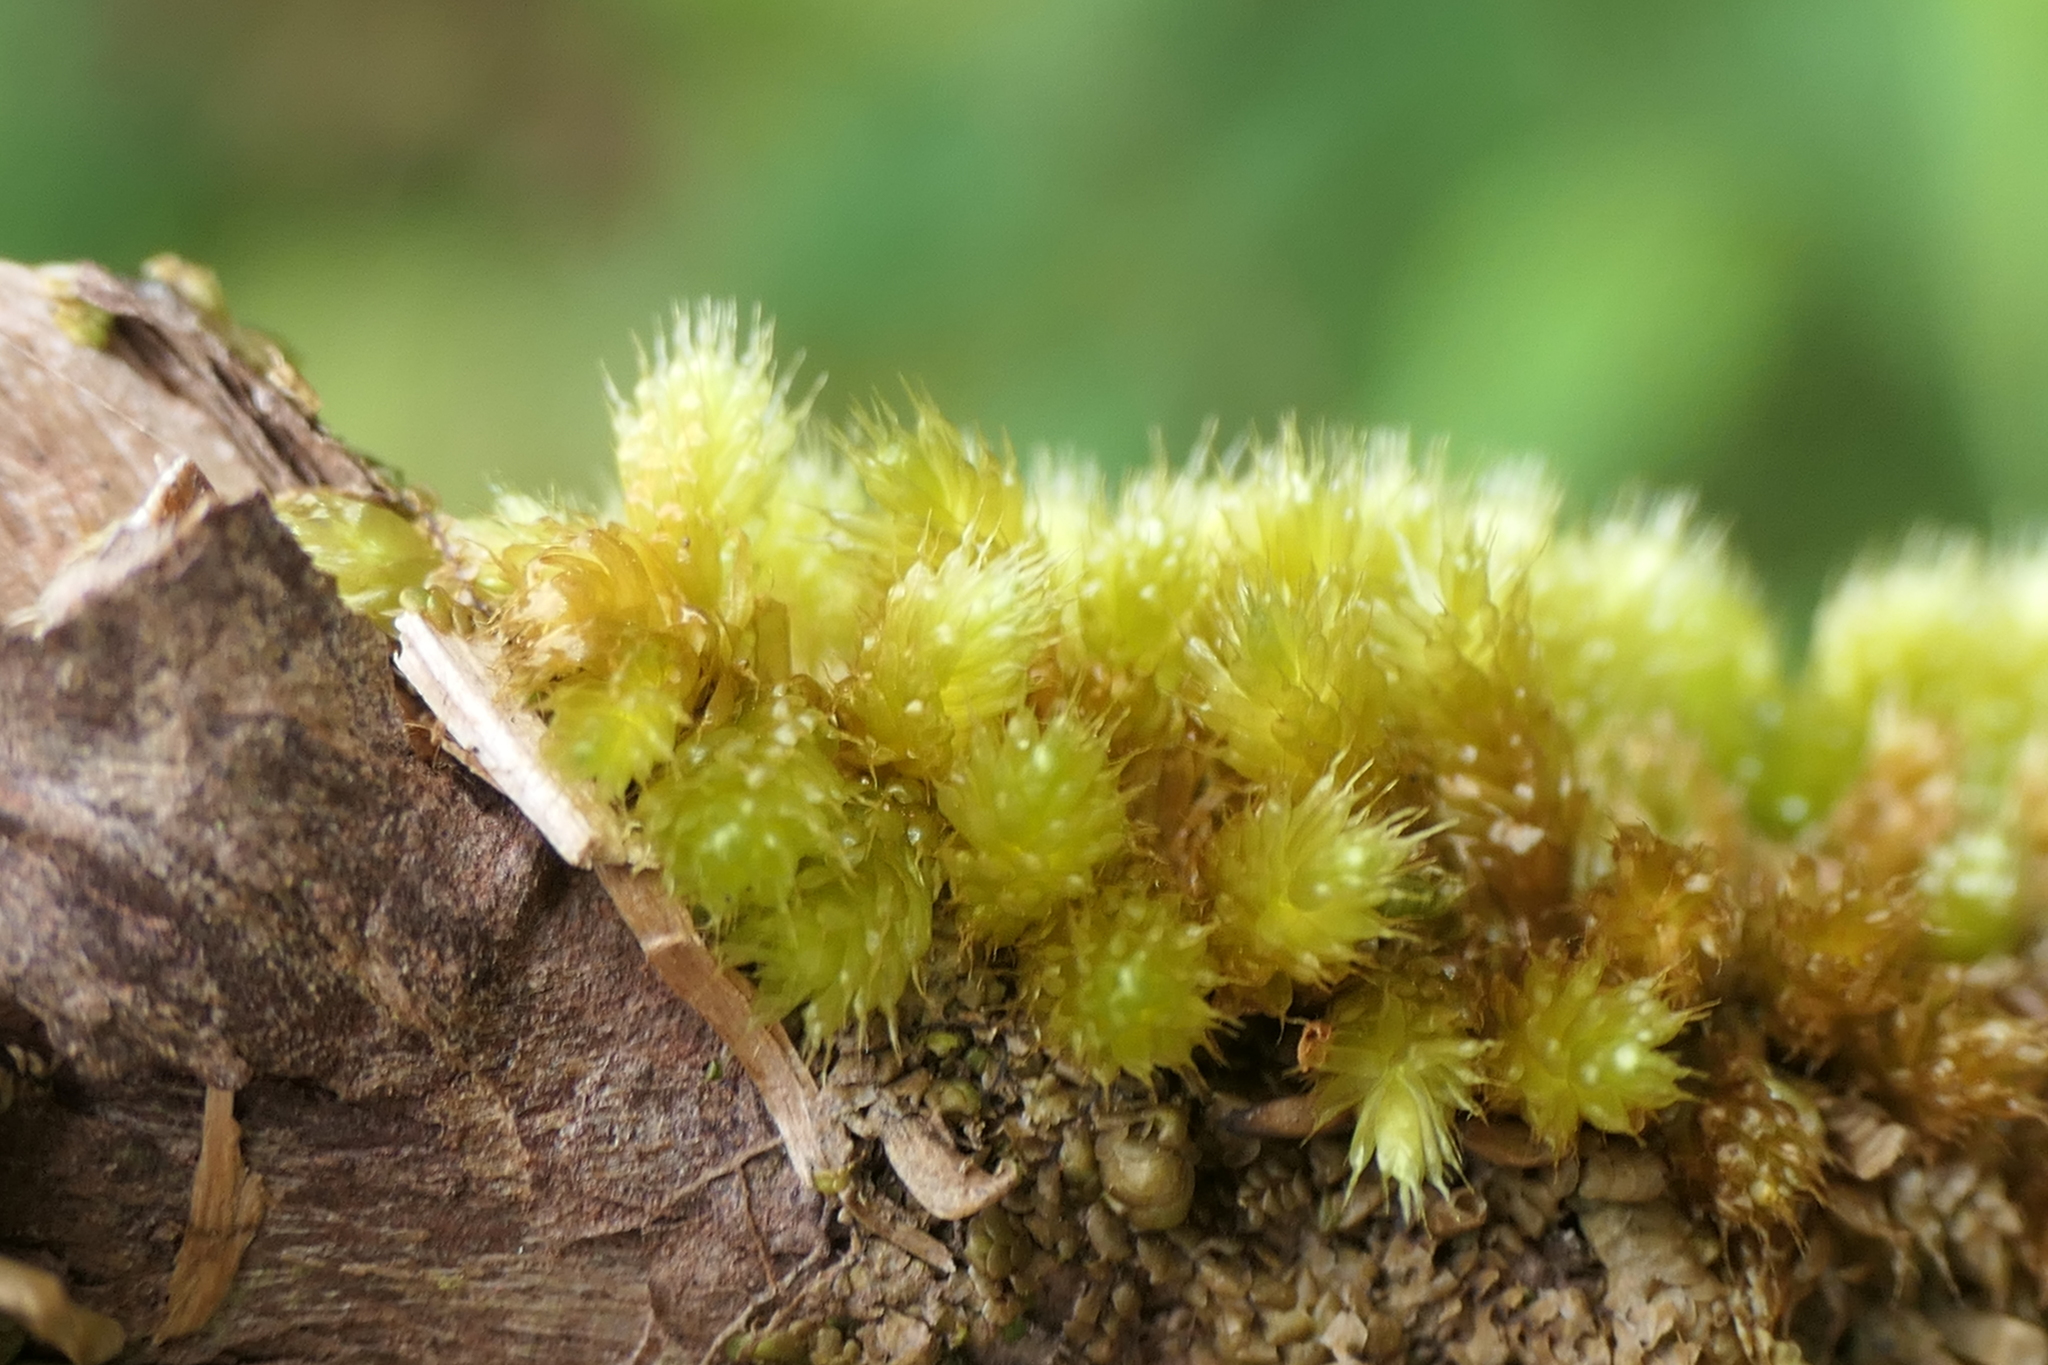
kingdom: Plantae
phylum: Bryophyta
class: Bryopsida
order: Hypnales
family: Myuriaceae
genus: Myurium
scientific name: Myurium hochstetteri
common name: Hare-tail moss
